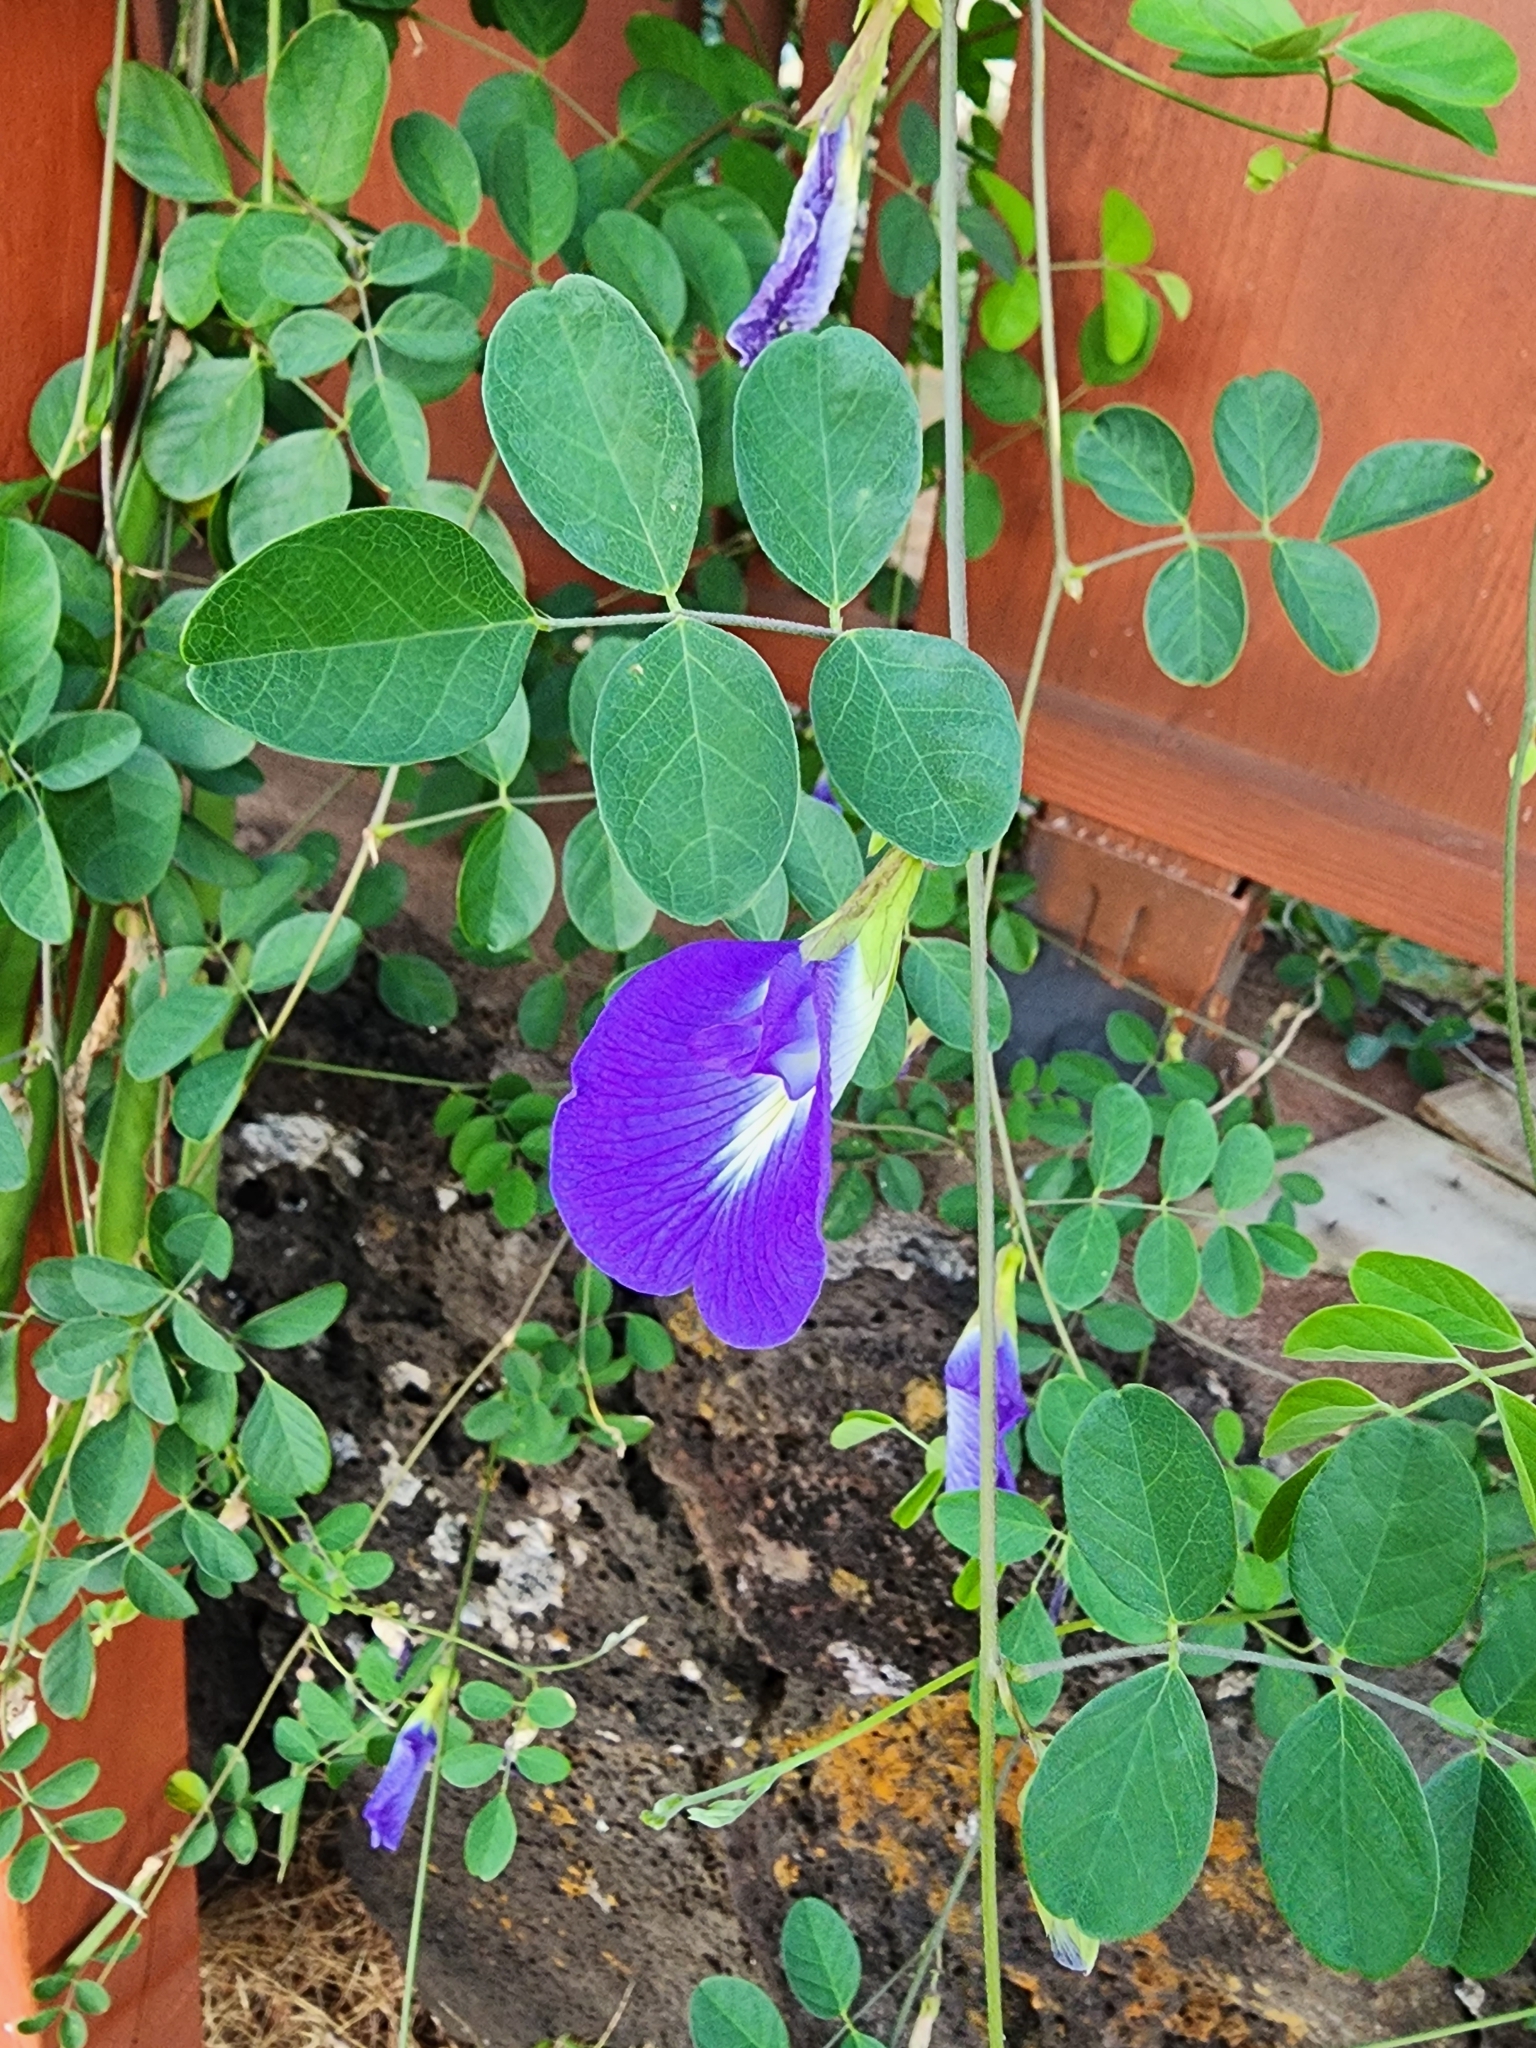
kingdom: Plantae
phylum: Tracheophyta
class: Magnoliopsida
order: Fabales
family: Fabaceae
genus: Clitoria
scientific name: Clitoria ternatea
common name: Asian pigeonwings
